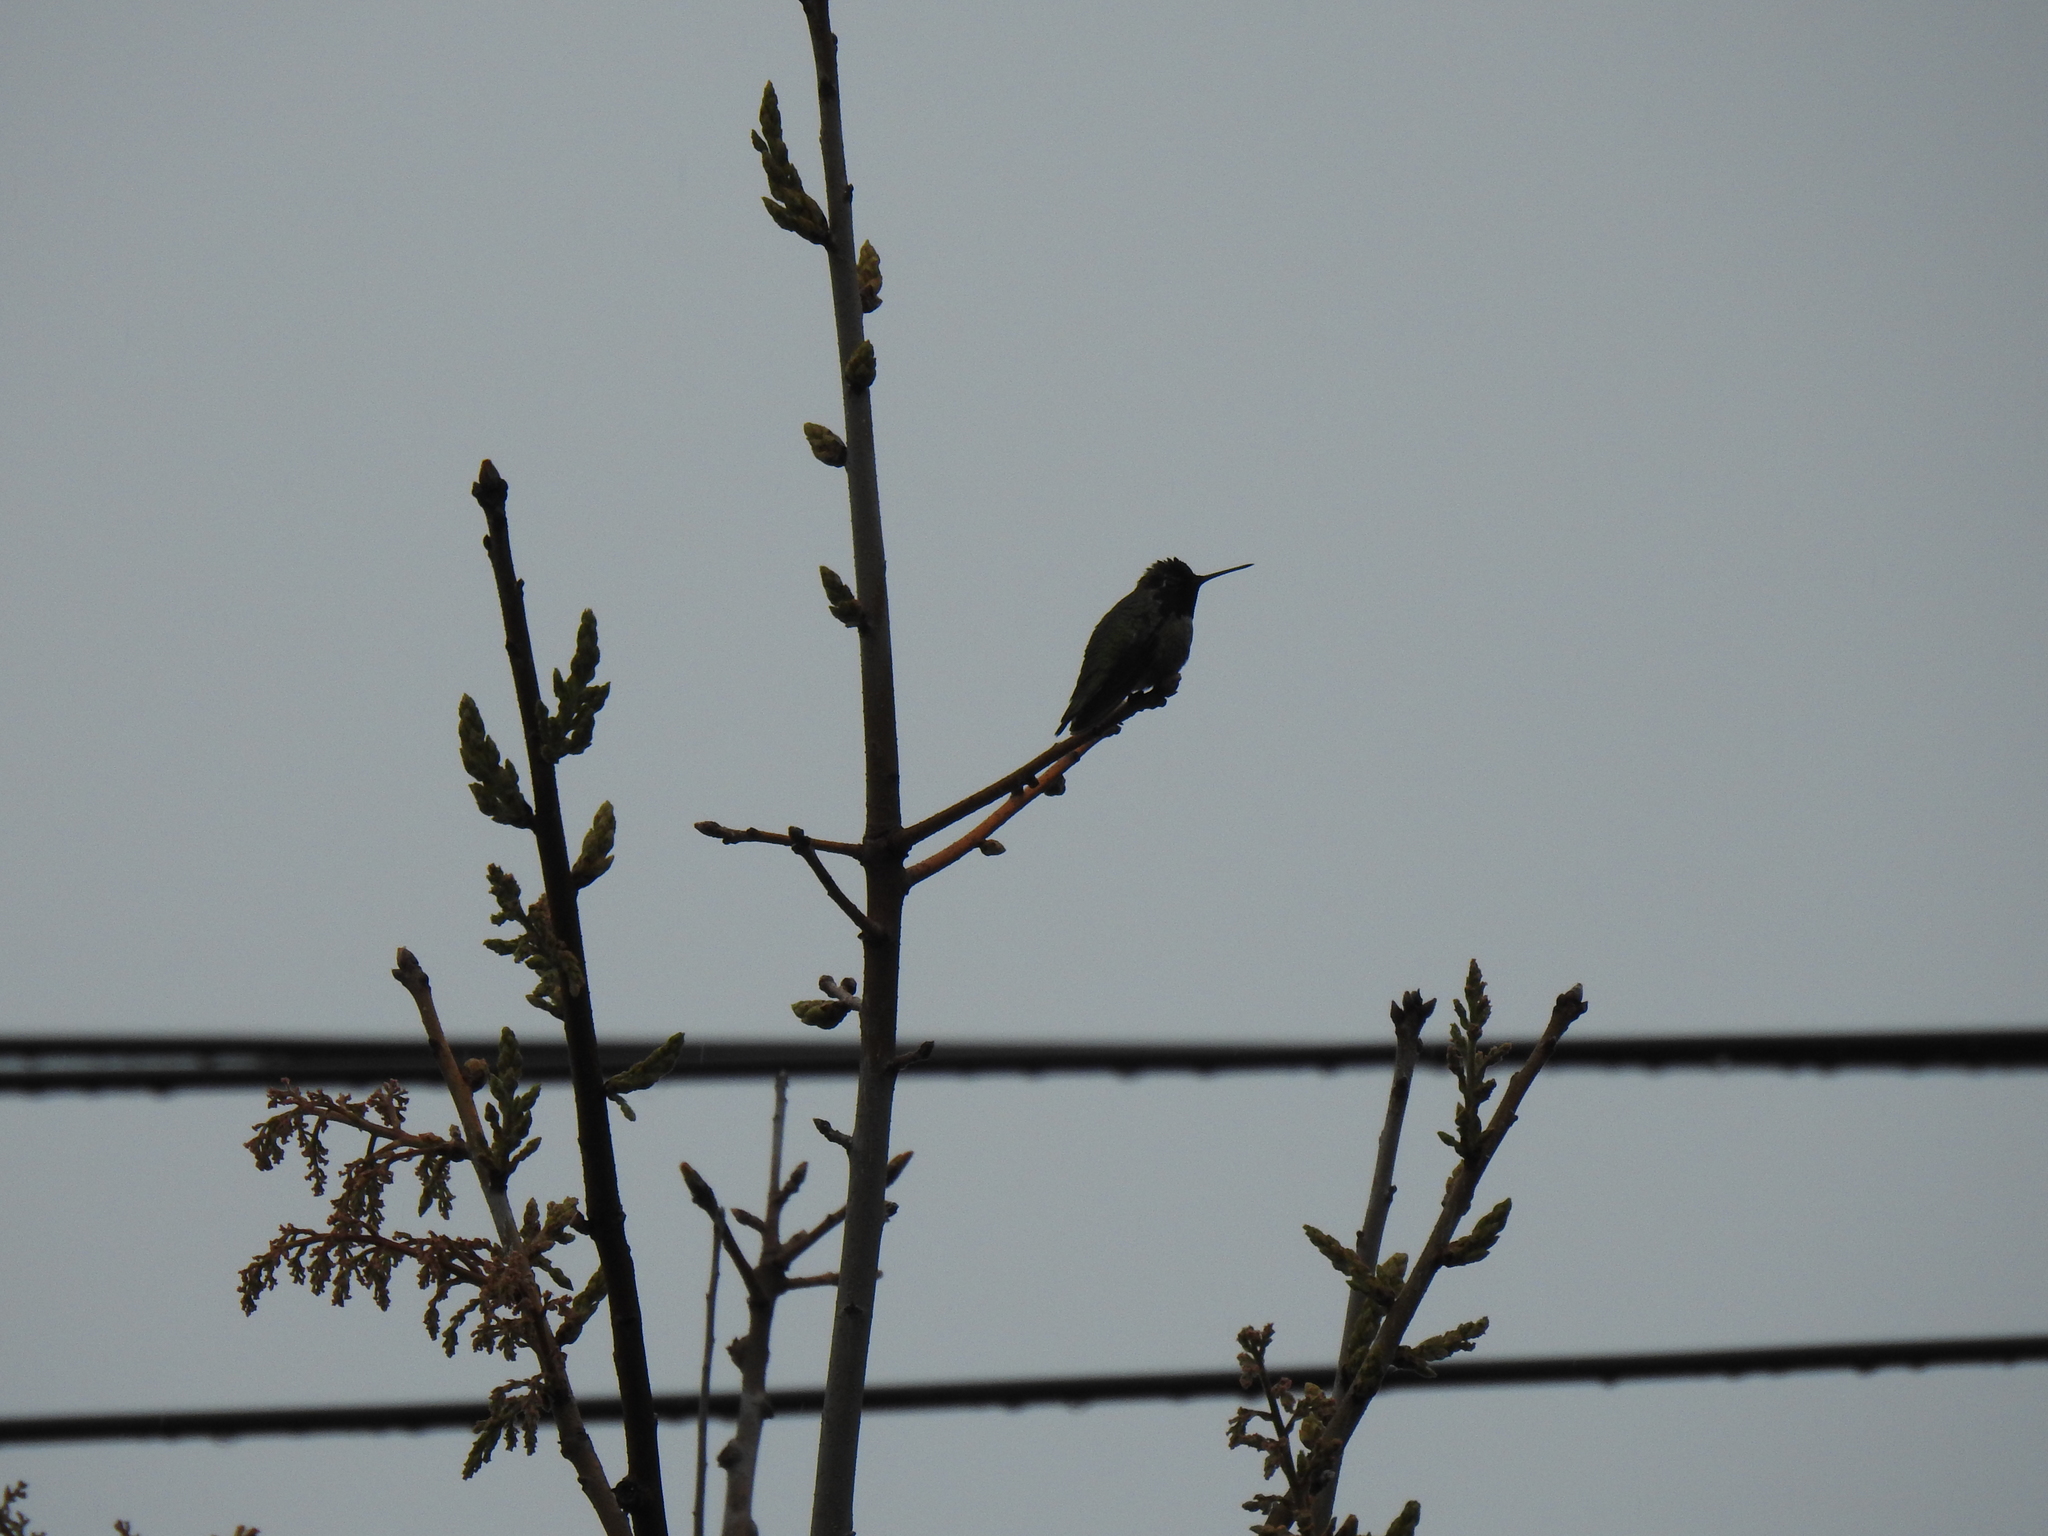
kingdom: Animalia
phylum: Chordata
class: Aves
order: Apodiformes
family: Trochilidae
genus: Calypte
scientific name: Calypte anna
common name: Anna's hummingbird
